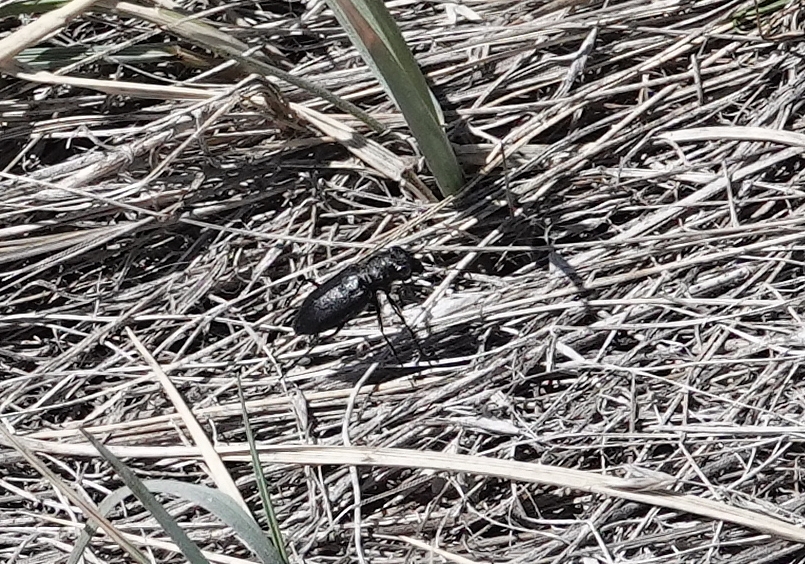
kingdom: Animalia
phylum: Arthropoda
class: Insecta
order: Coleoptera
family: Carabidae
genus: Cicindela
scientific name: Cicindela nebraskana
